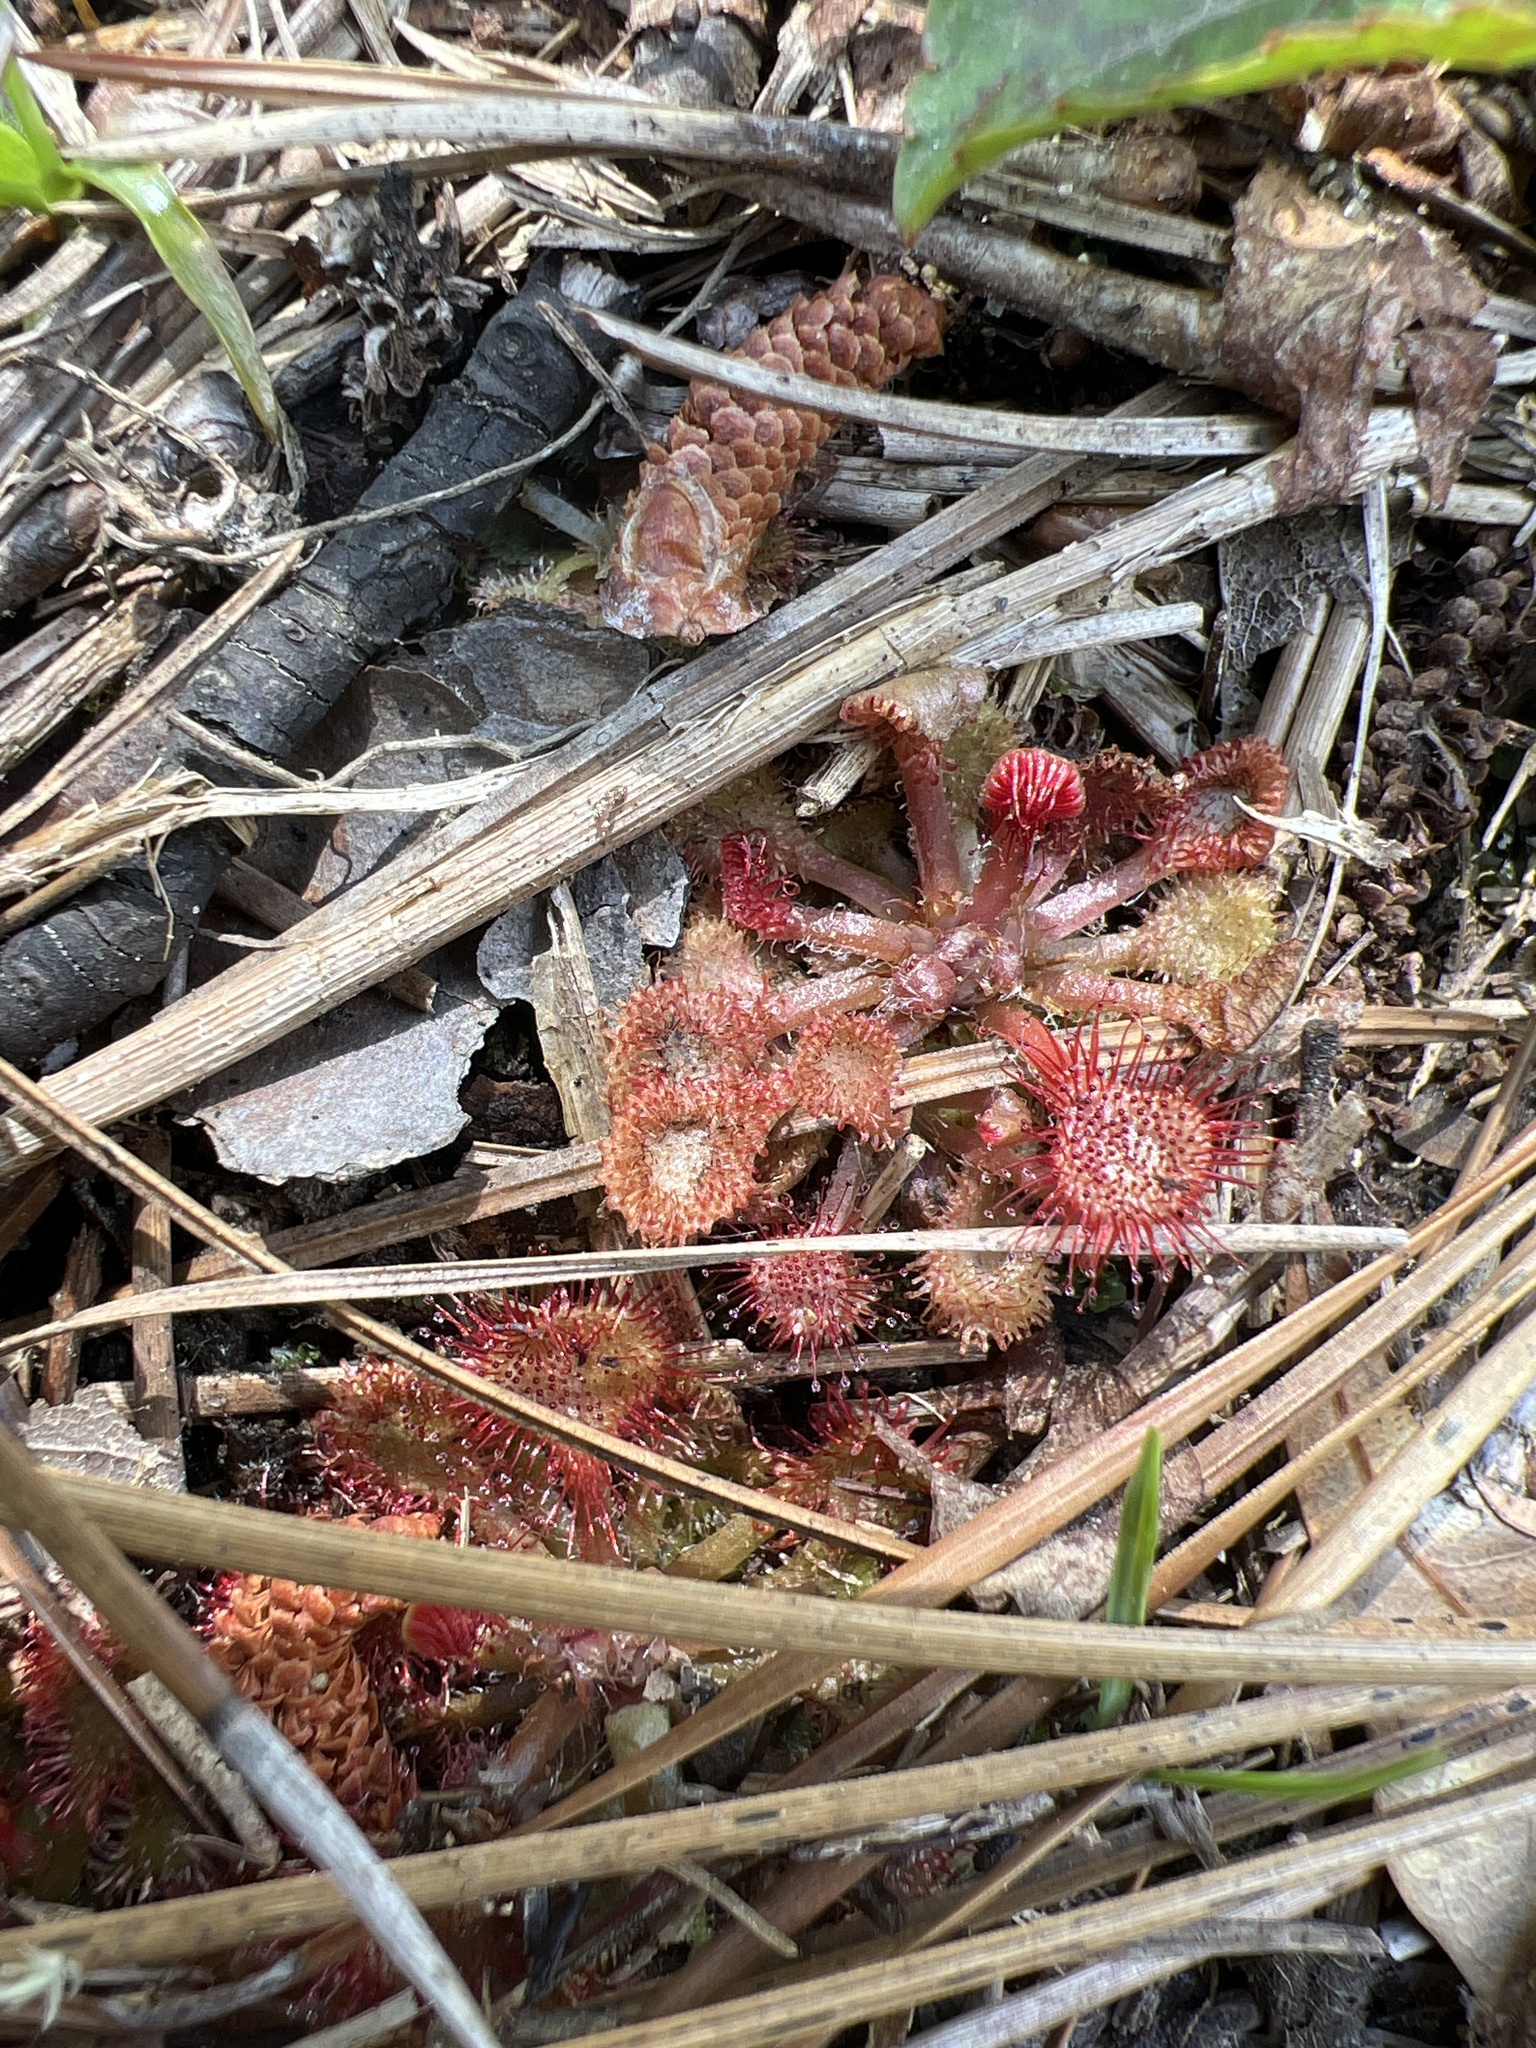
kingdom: Plantae
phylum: Tracheophyta
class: Magnoliopsida
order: Caryophyllales
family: Droseraceae
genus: Drosera
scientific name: Drosera capillaris
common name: Pink sundew
